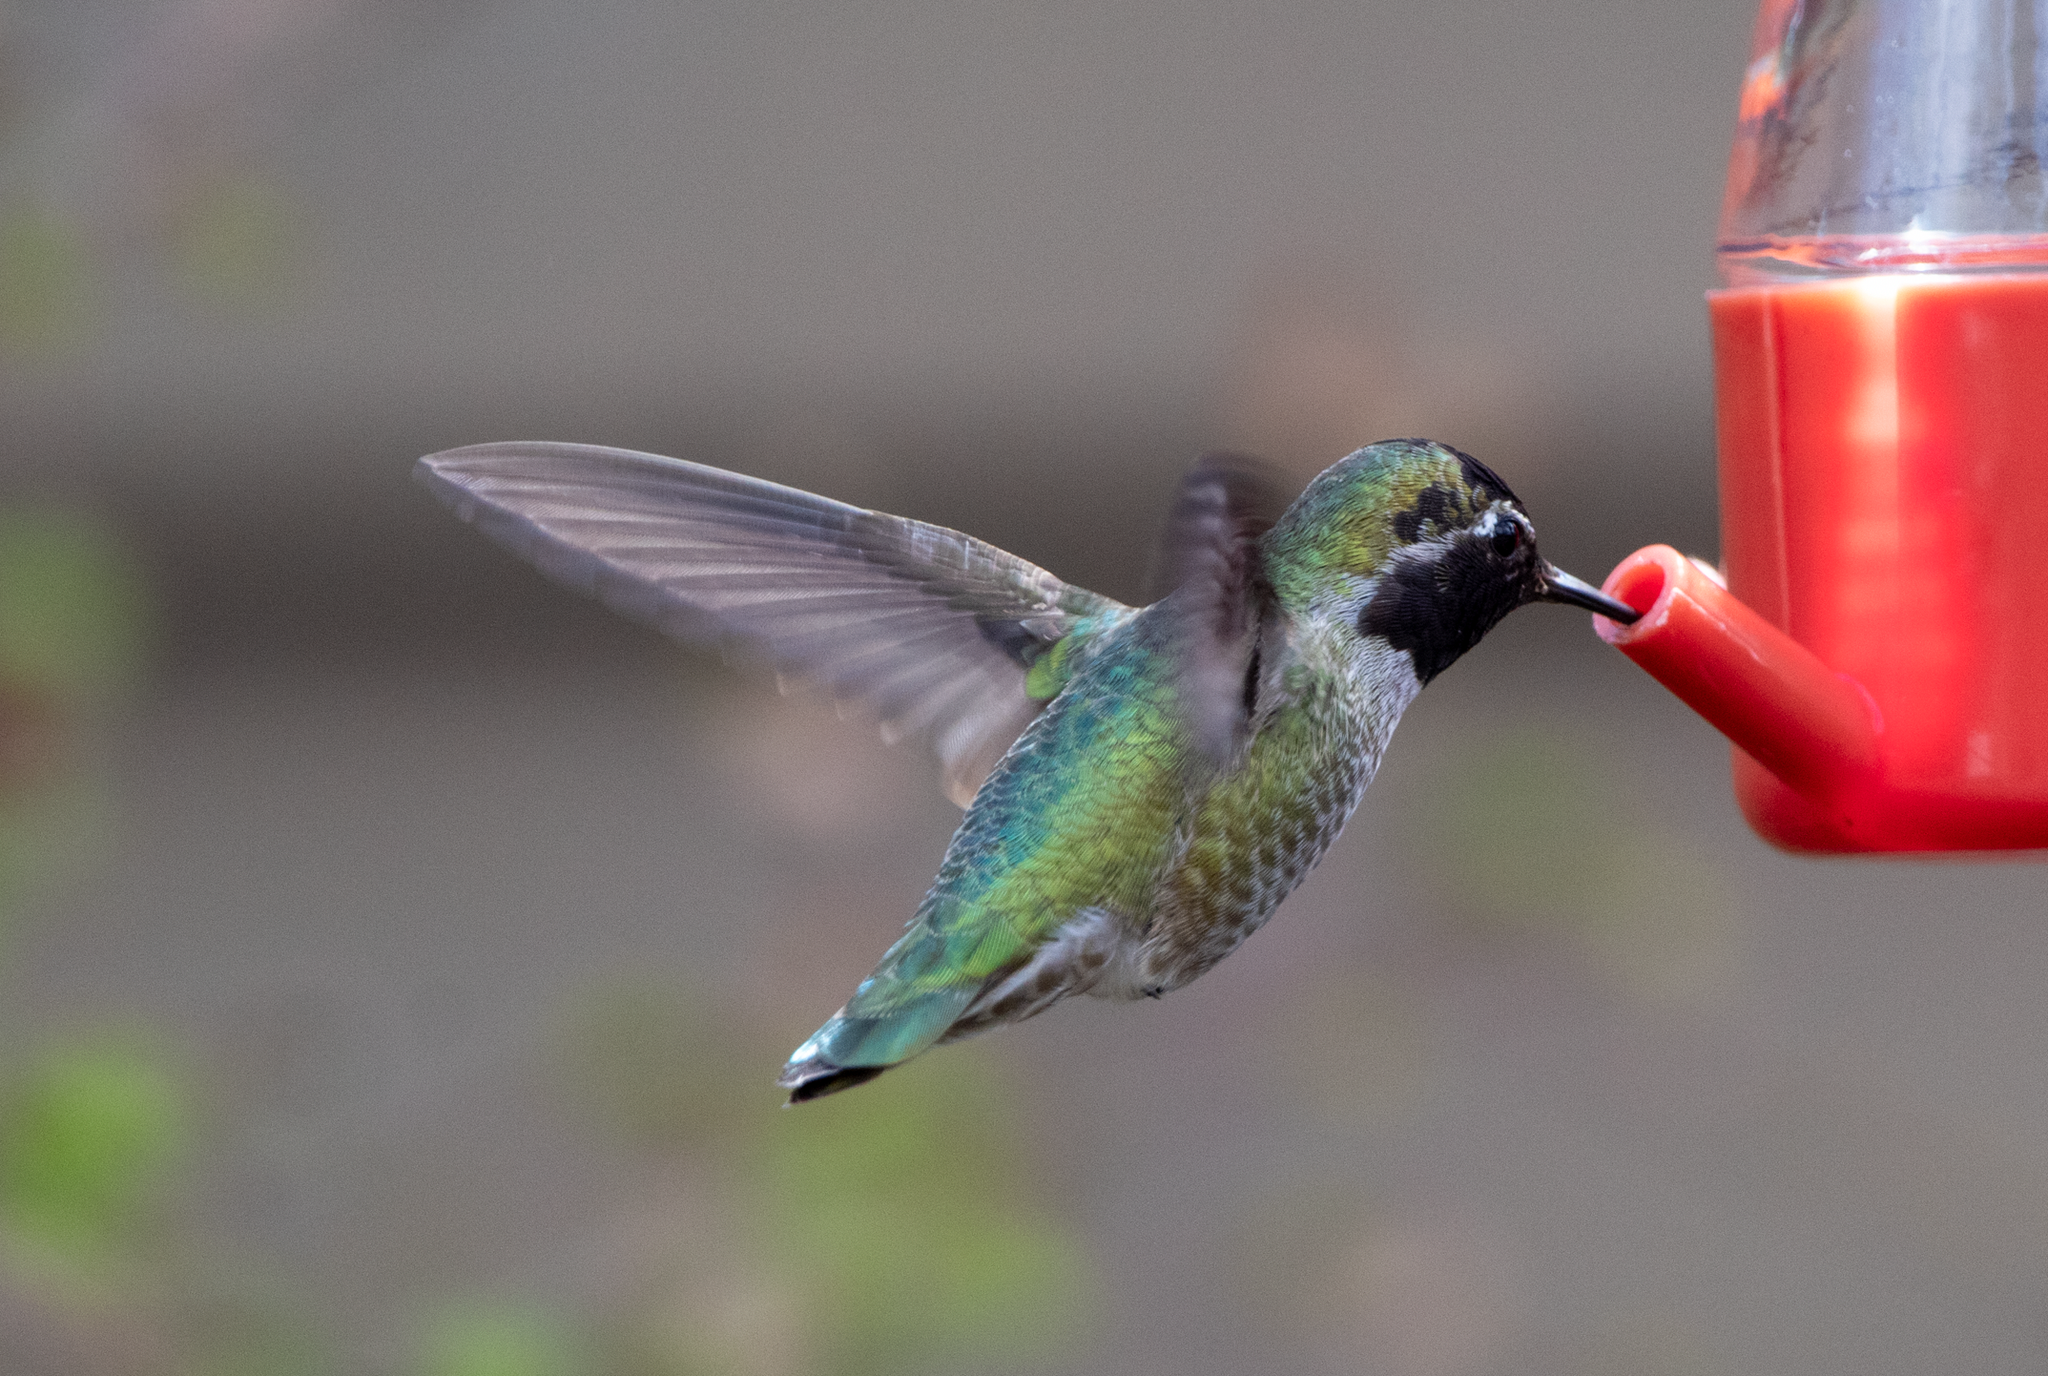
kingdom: Animalia
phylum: Chordata
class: Aves
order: Apodiformes
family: Trochilidae
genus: Calypte
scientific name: Calypte anna
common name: Anna's hummingbird
